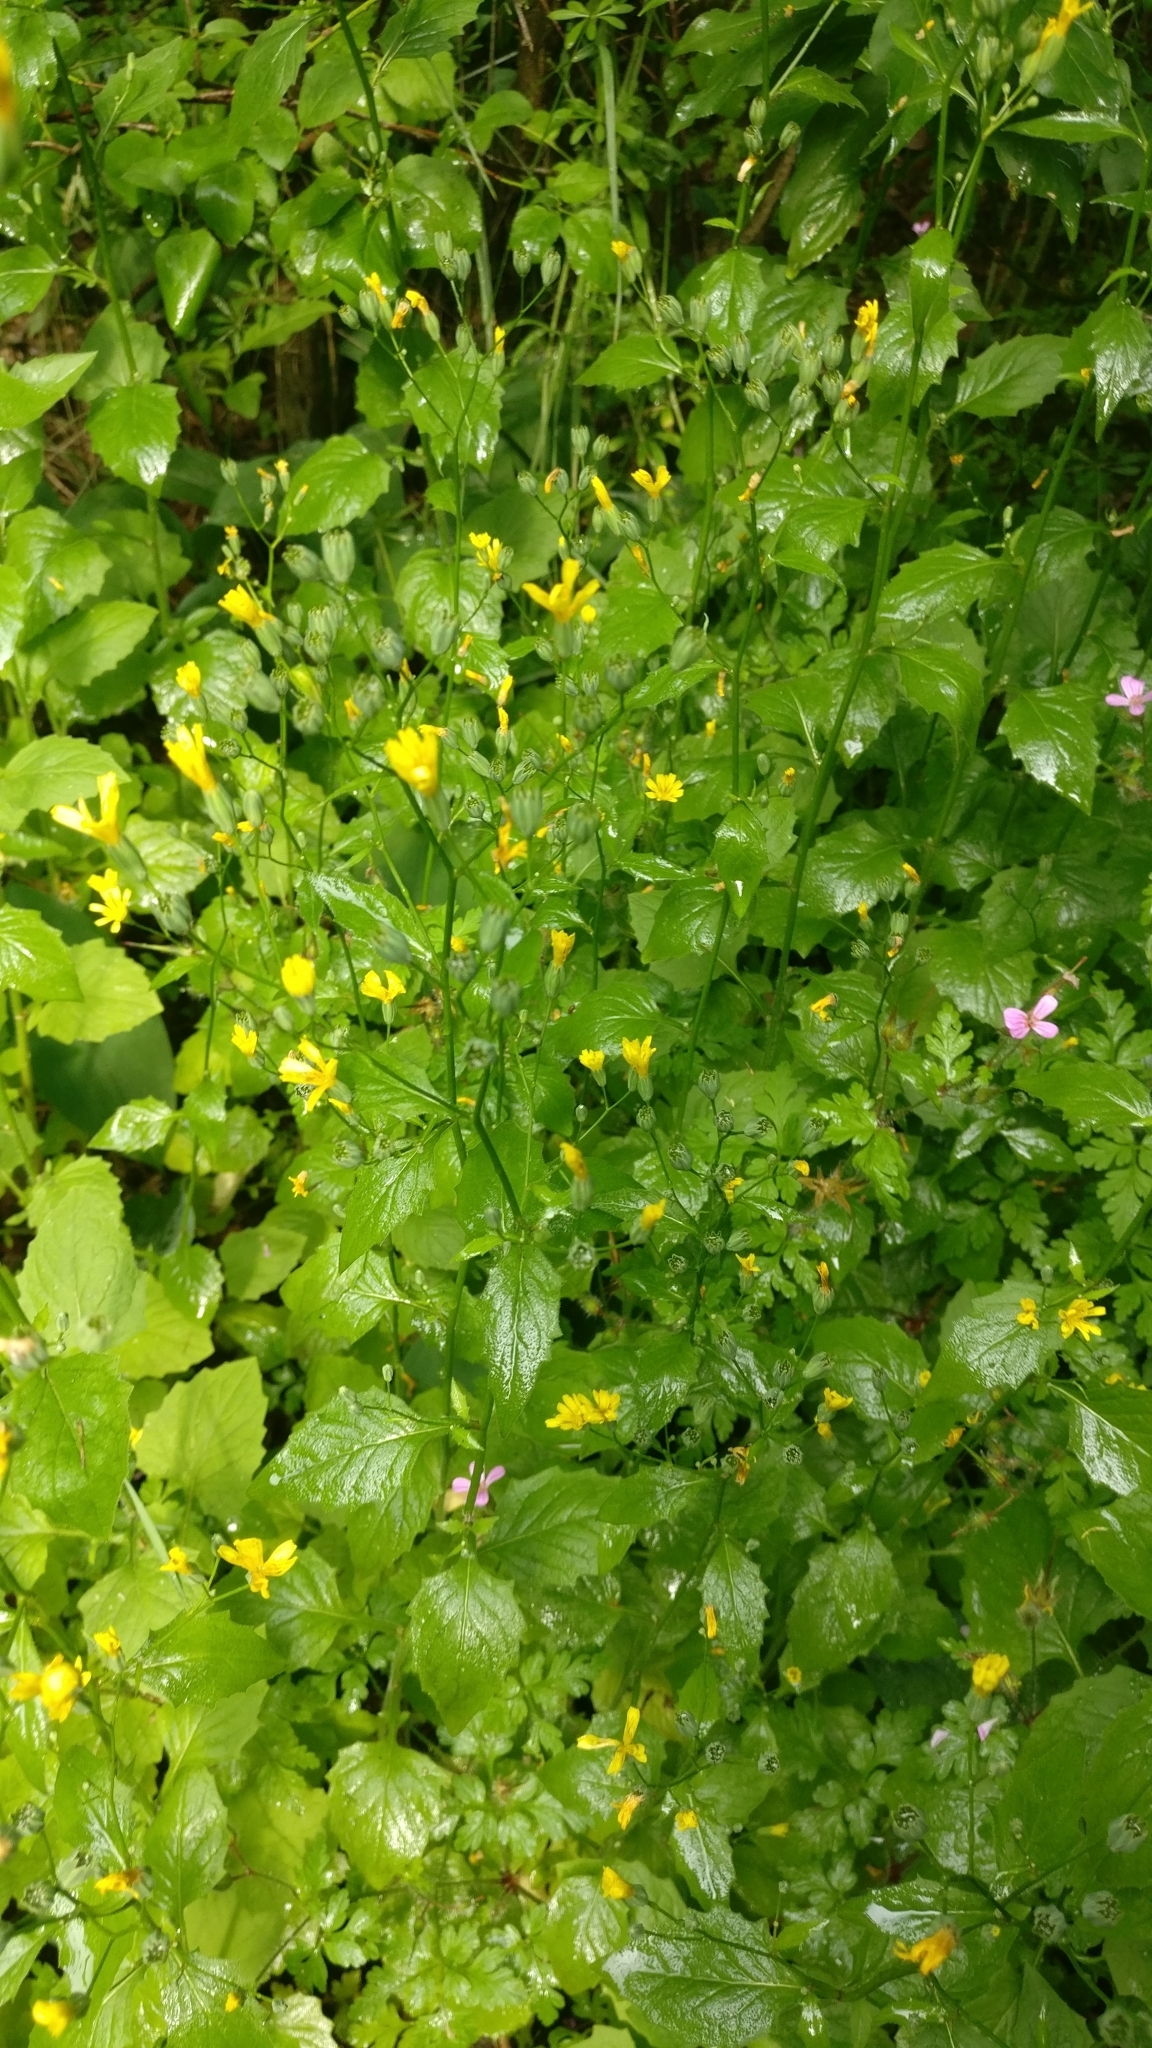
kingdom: Plantae
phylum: Tracheophyta
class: Magnoliopsida
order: Asterales
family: Asteraceae
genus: Lapsana
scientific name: Lapsana communis
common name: Nipplewort
